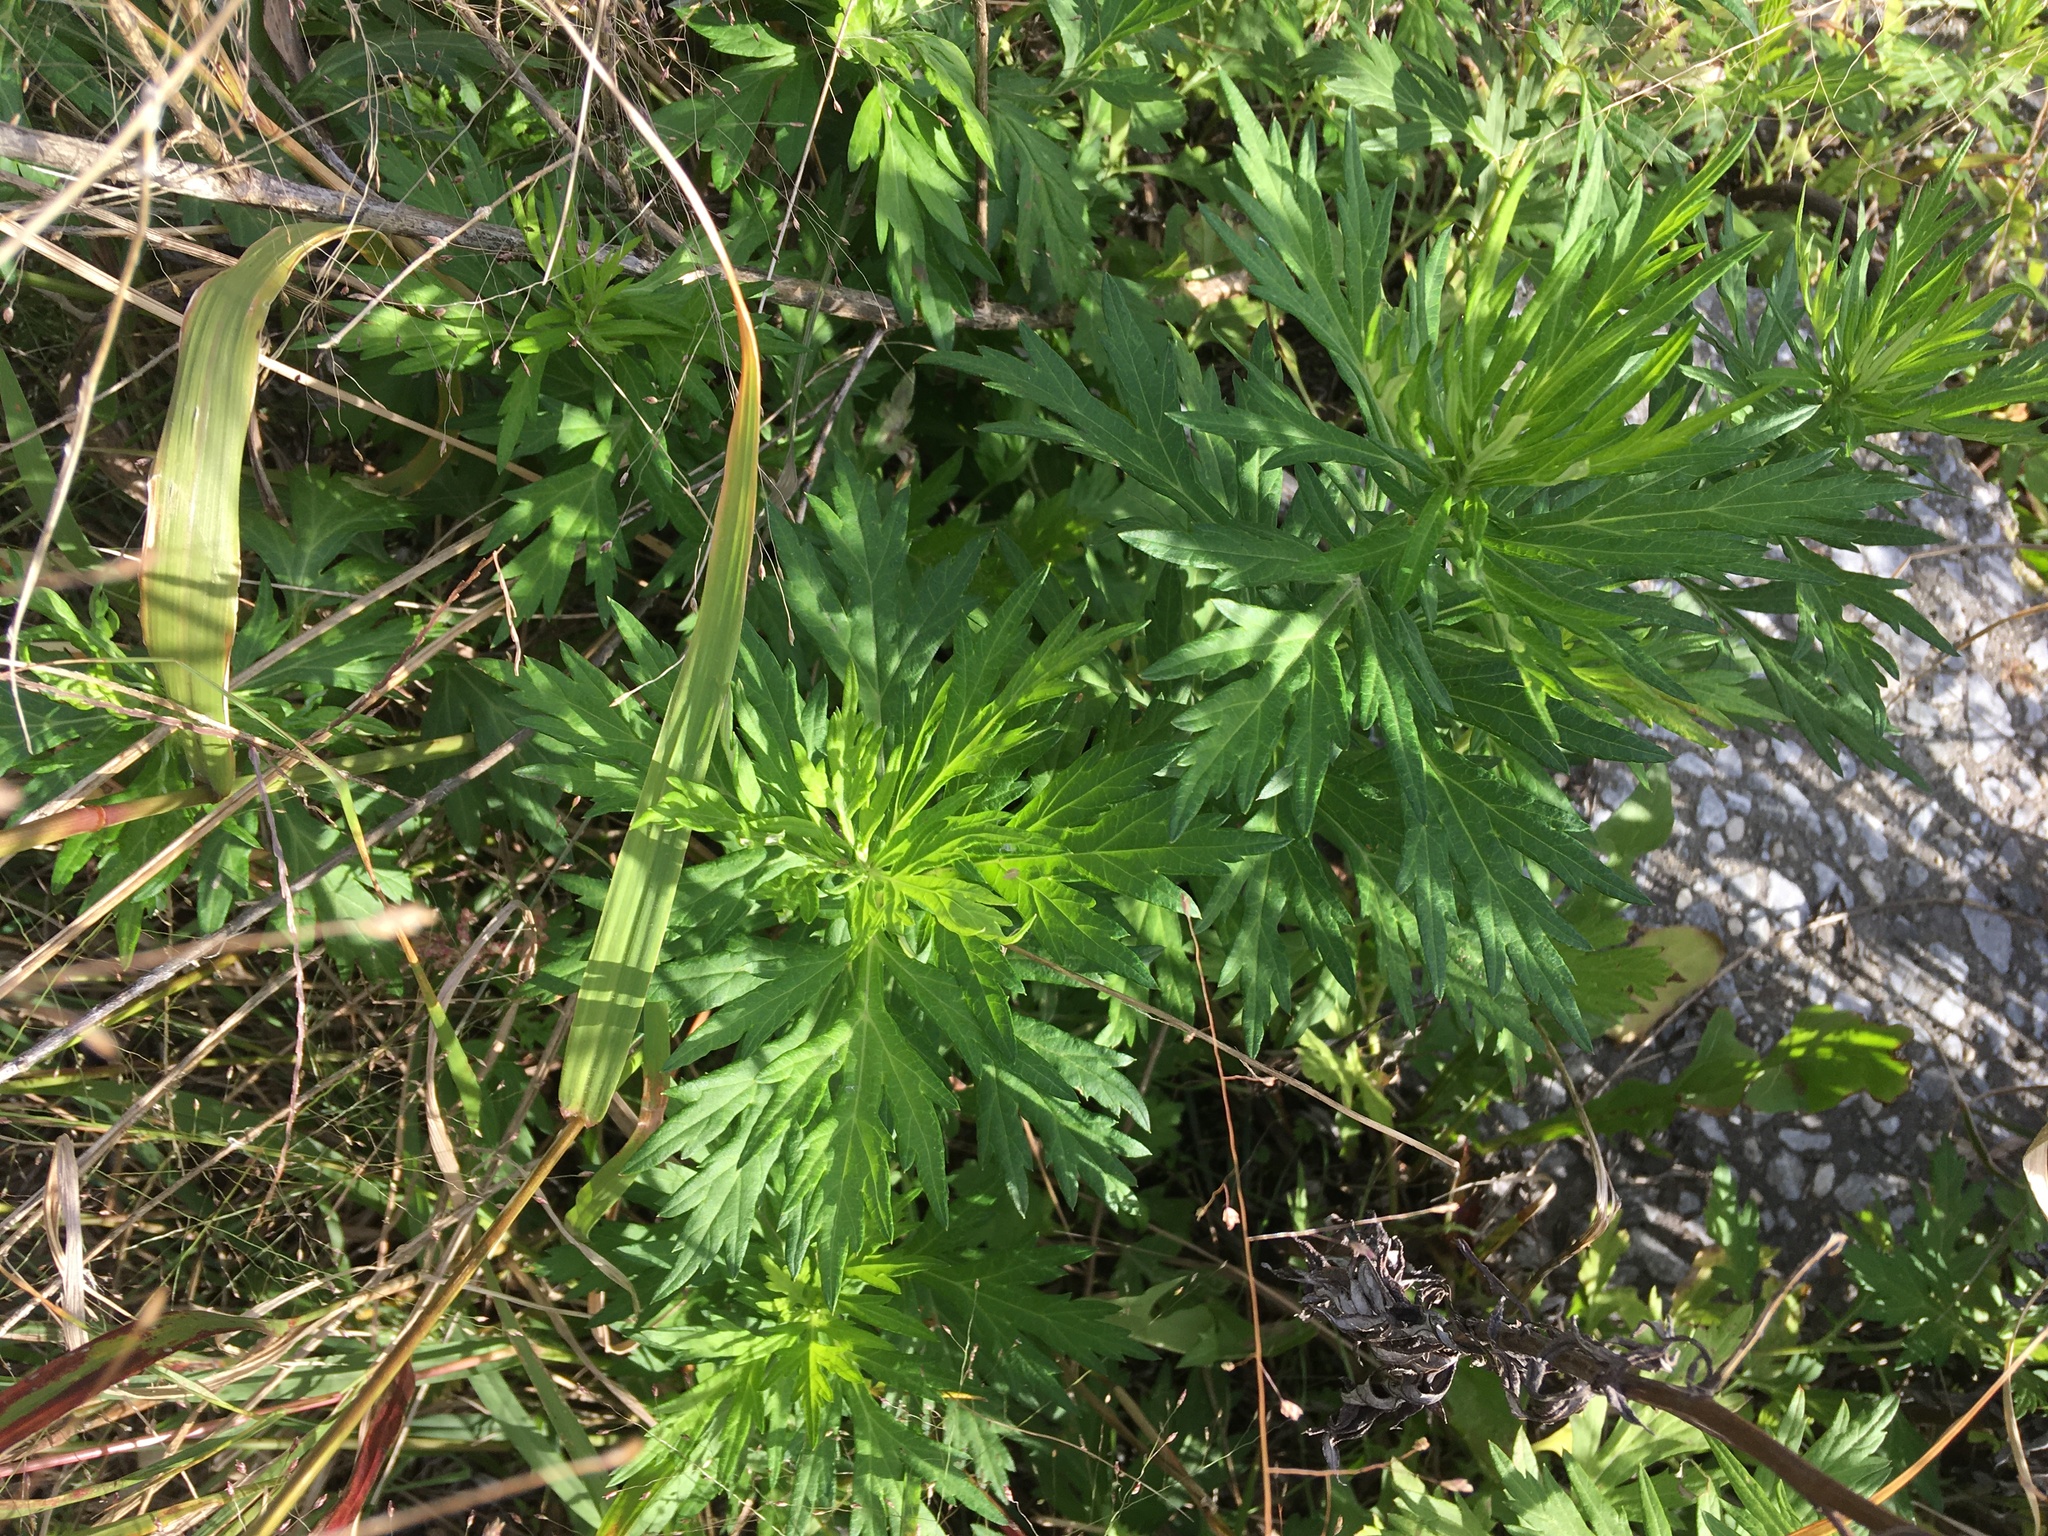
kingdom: Plantae
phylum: Tracheophyta
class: Magnoliopsida
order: Asterales
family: Asteraceae
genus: Artemisia
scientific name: Artemisia vulgaris
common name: Mugwort
